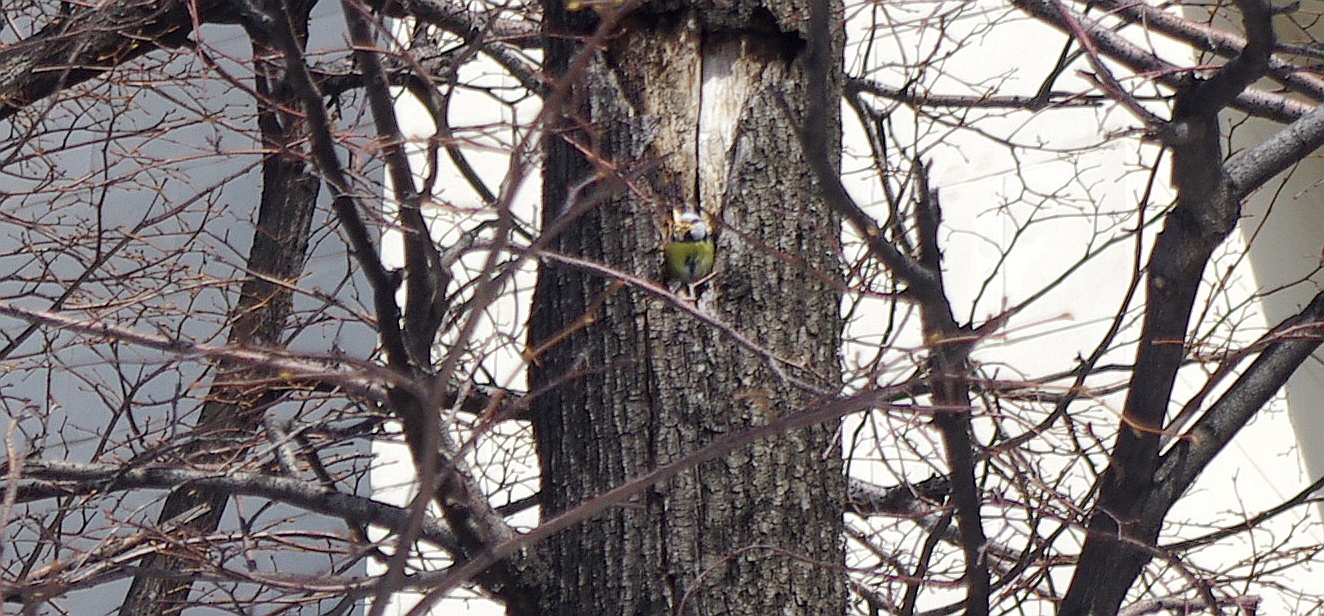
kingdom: Animalia
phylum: Chordata
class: Aves
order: Passeriformes
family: Paridae
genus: Cyanistes
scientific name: Cyanistes caeruleus
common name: Eurasian blue tit
